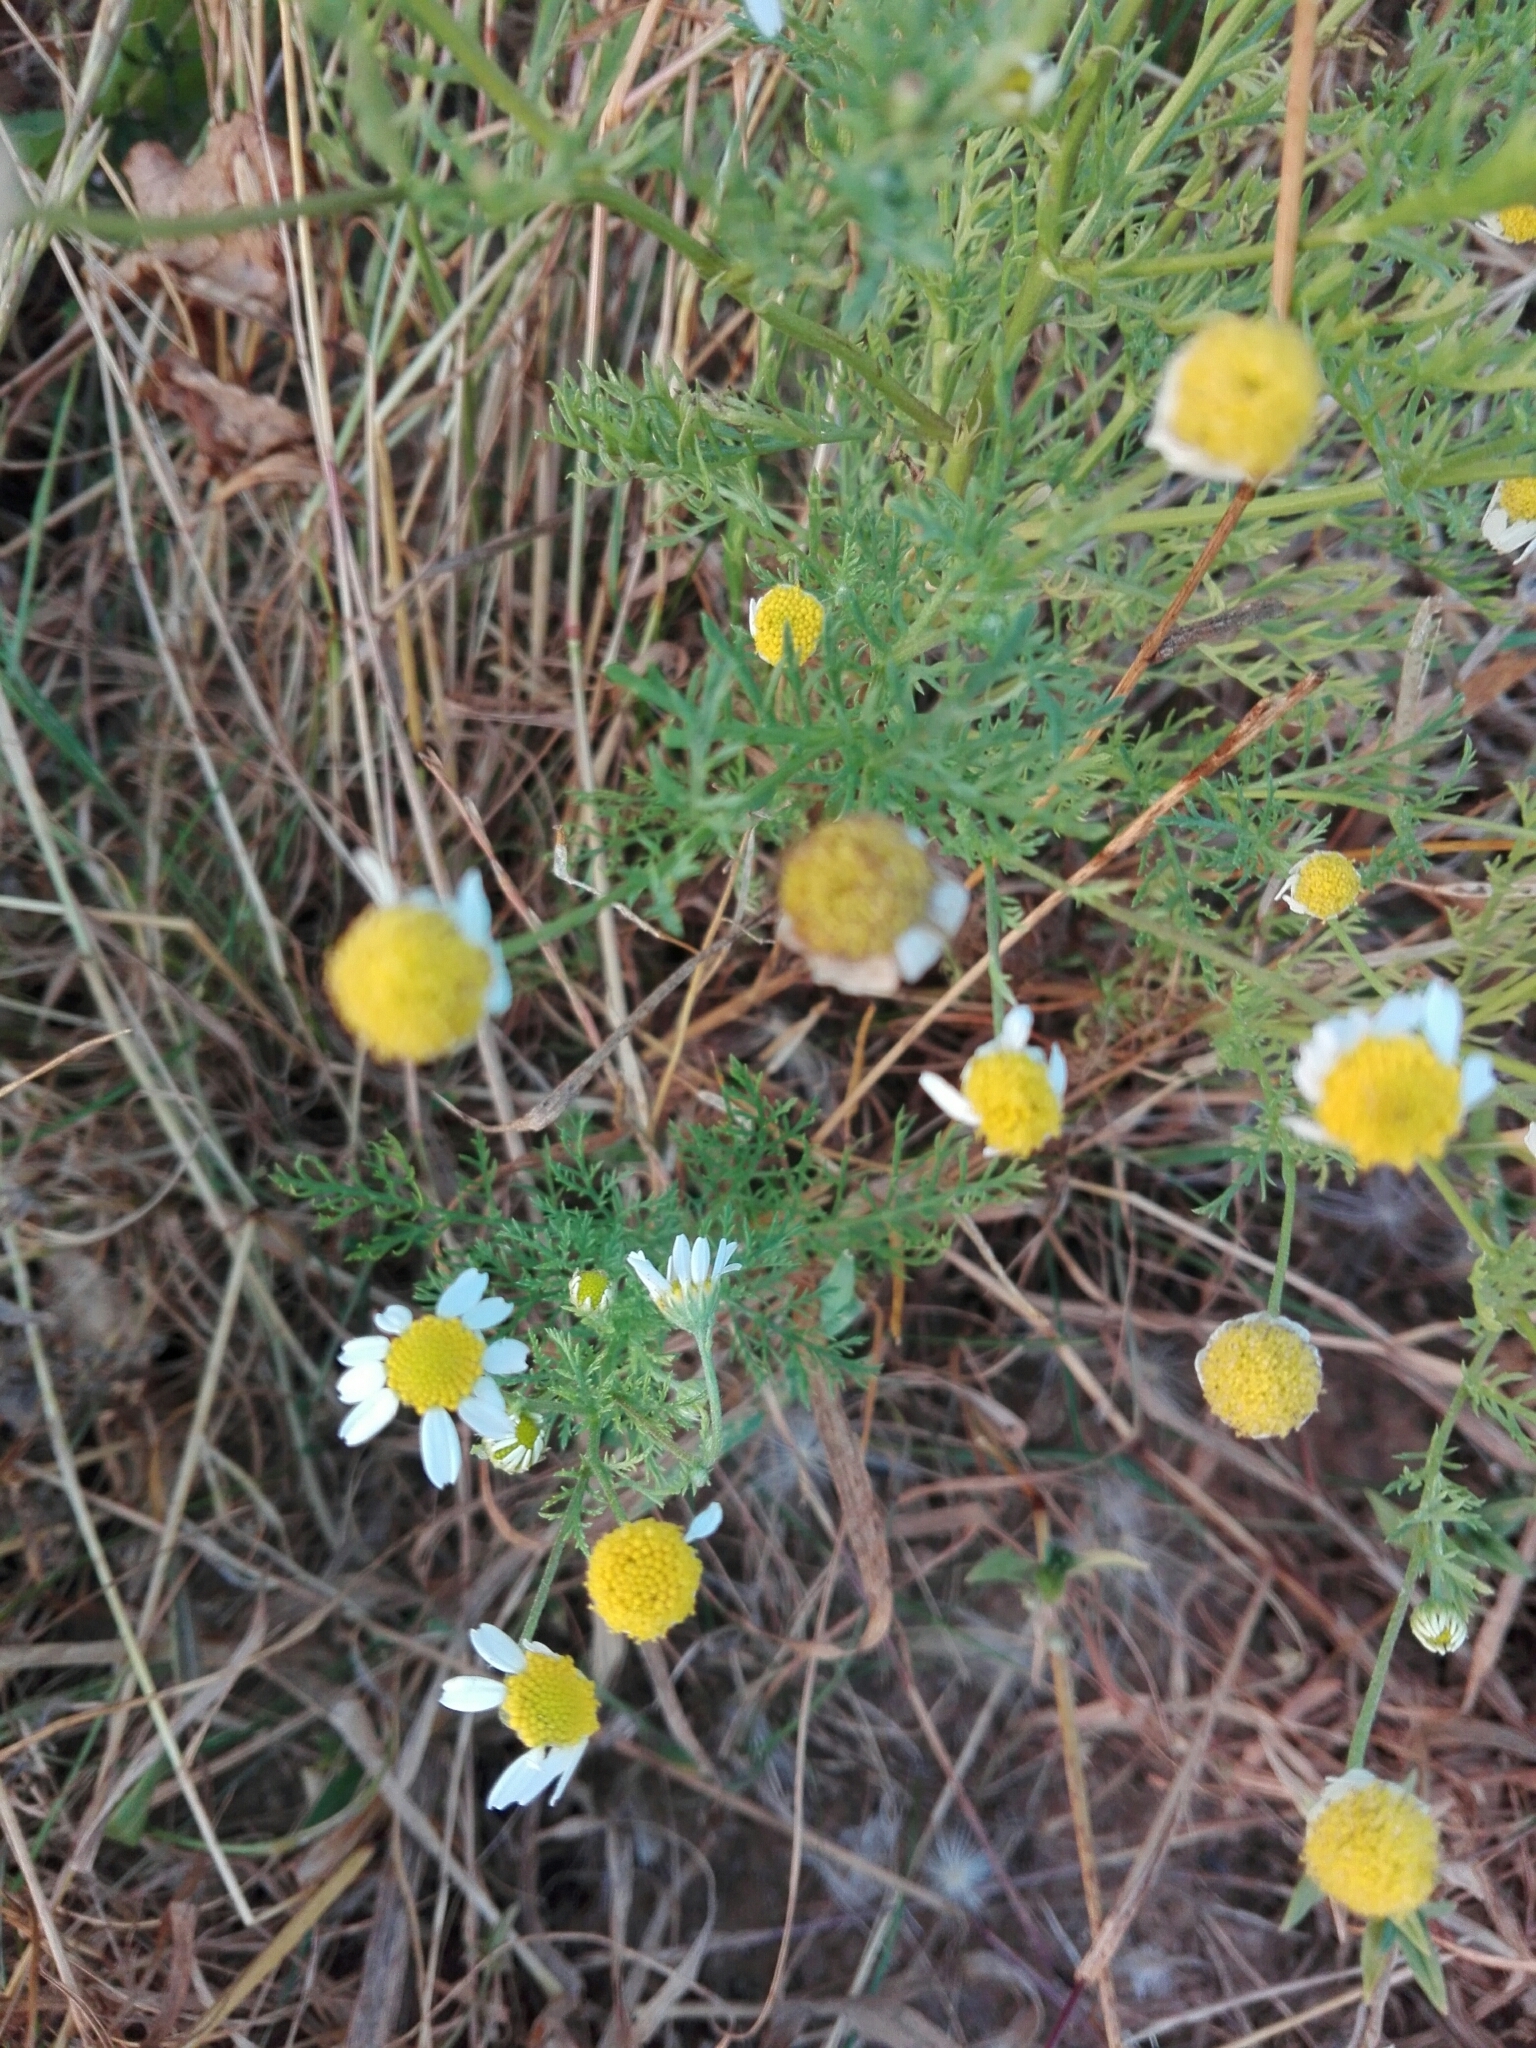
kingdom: Plantae
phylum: Tracheophyta
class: Magnoliopsida
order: Asterales
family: Asteraceae
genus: Matricaria
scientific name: Matricaria chamomilla
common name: Scented mayweed
